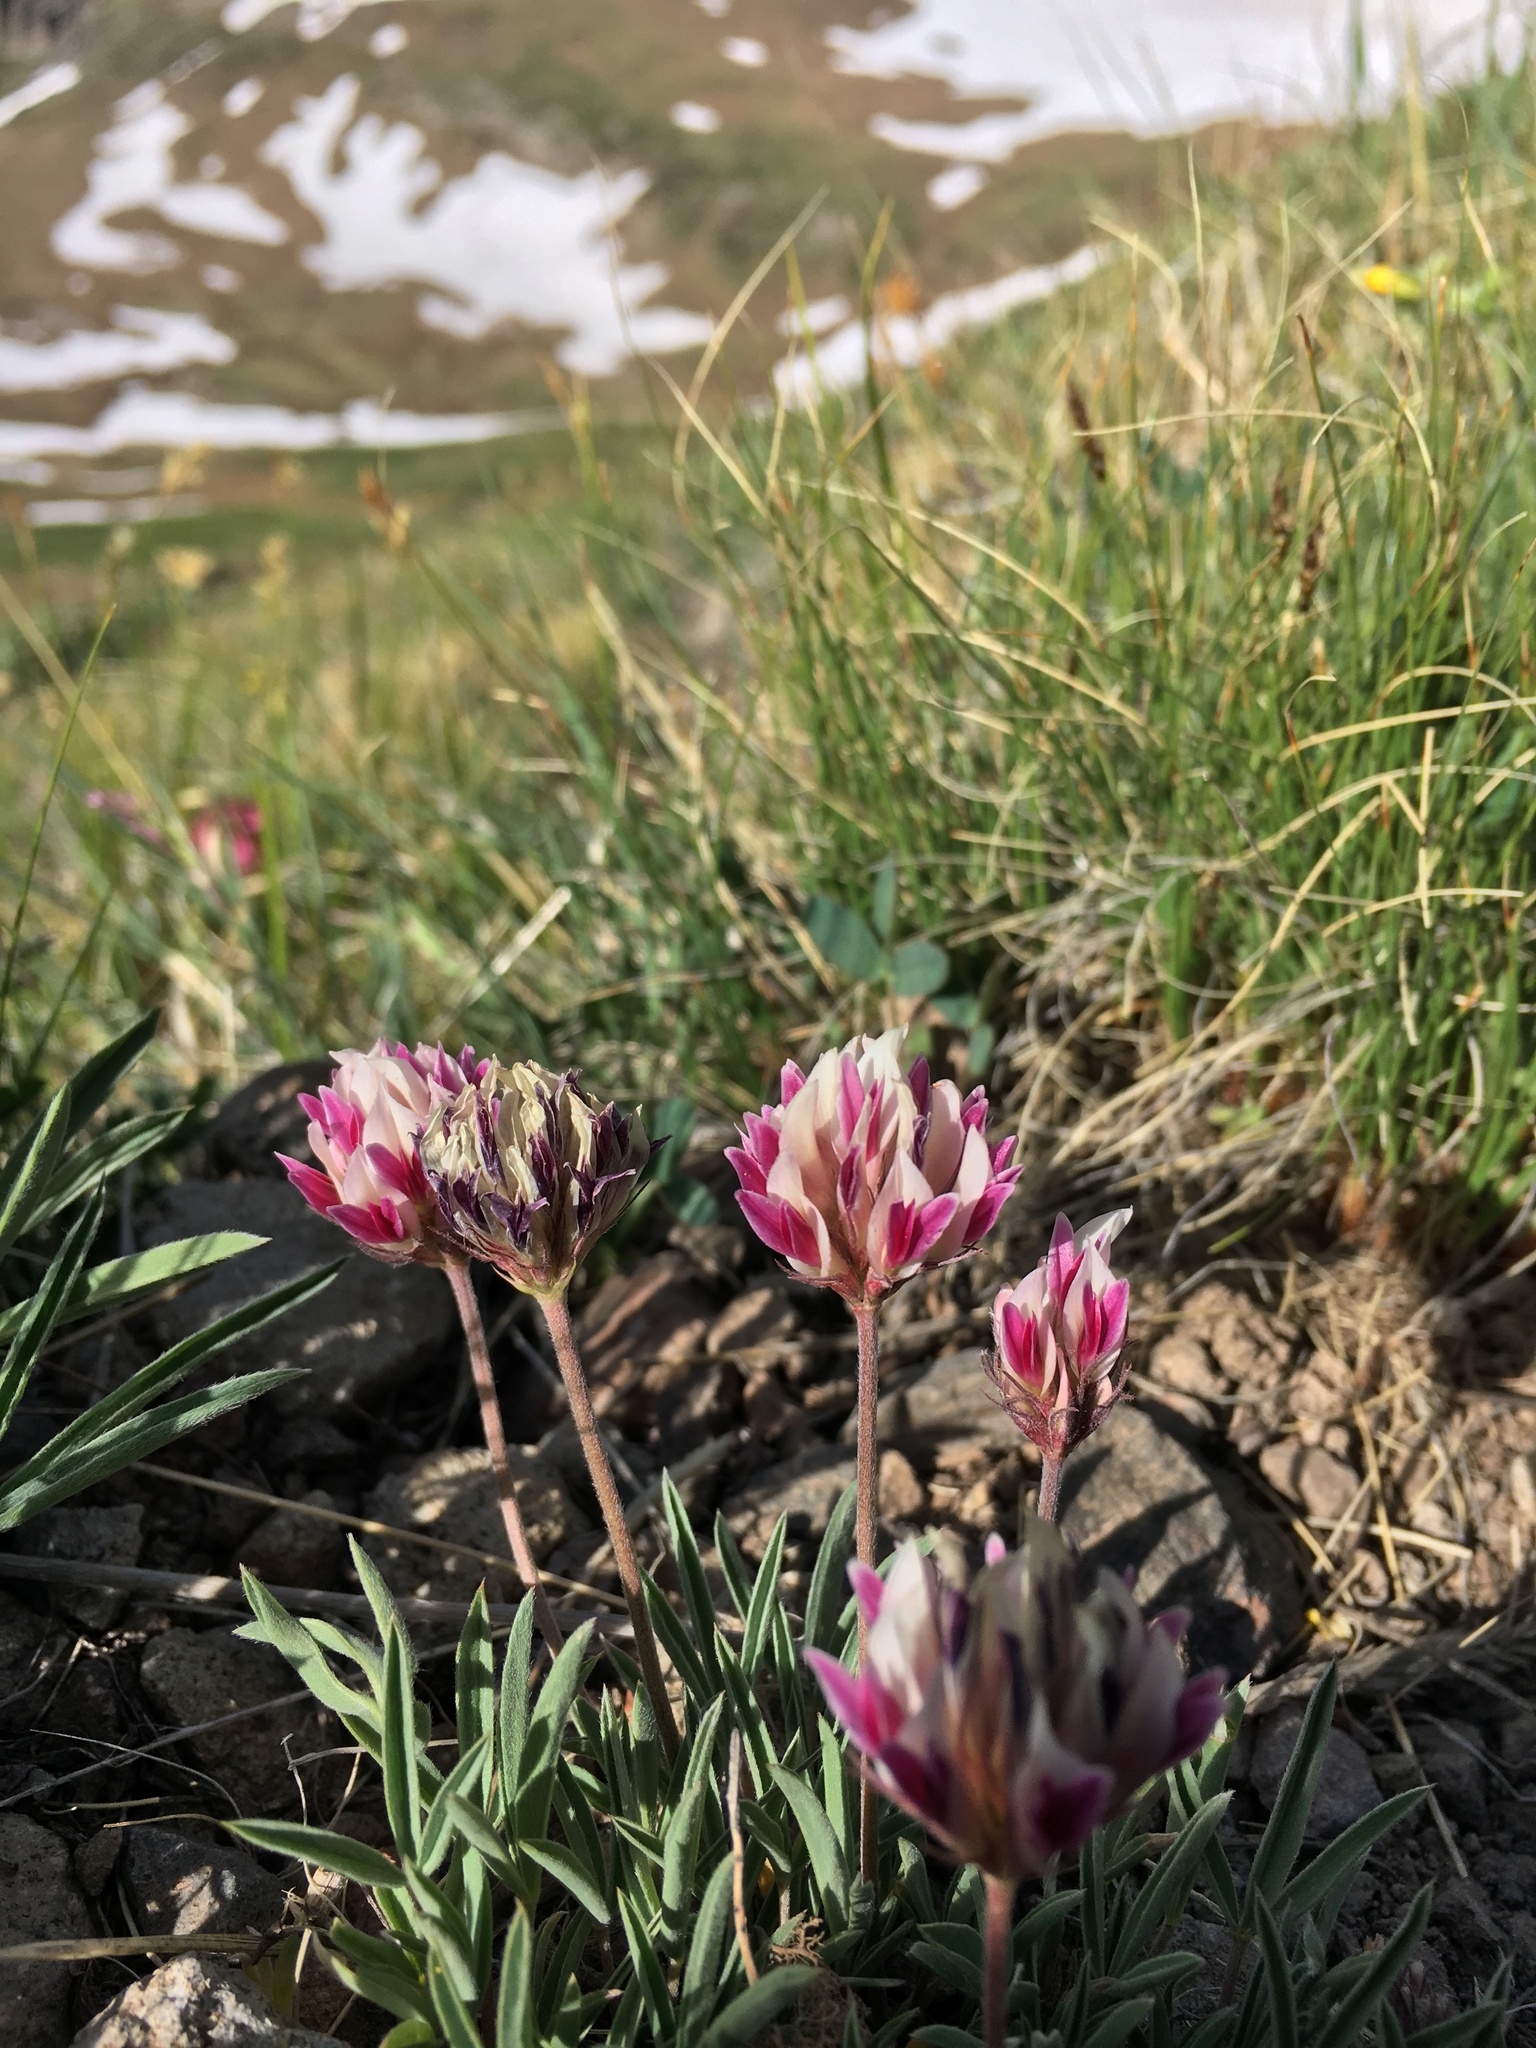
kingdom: Plantae
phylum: Tracheophyta
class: Magnoliopsida
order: Fabales
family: Fabaceae
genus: Trifolium
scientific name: Trifolium dasyphyllum
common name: Whip-root clover
